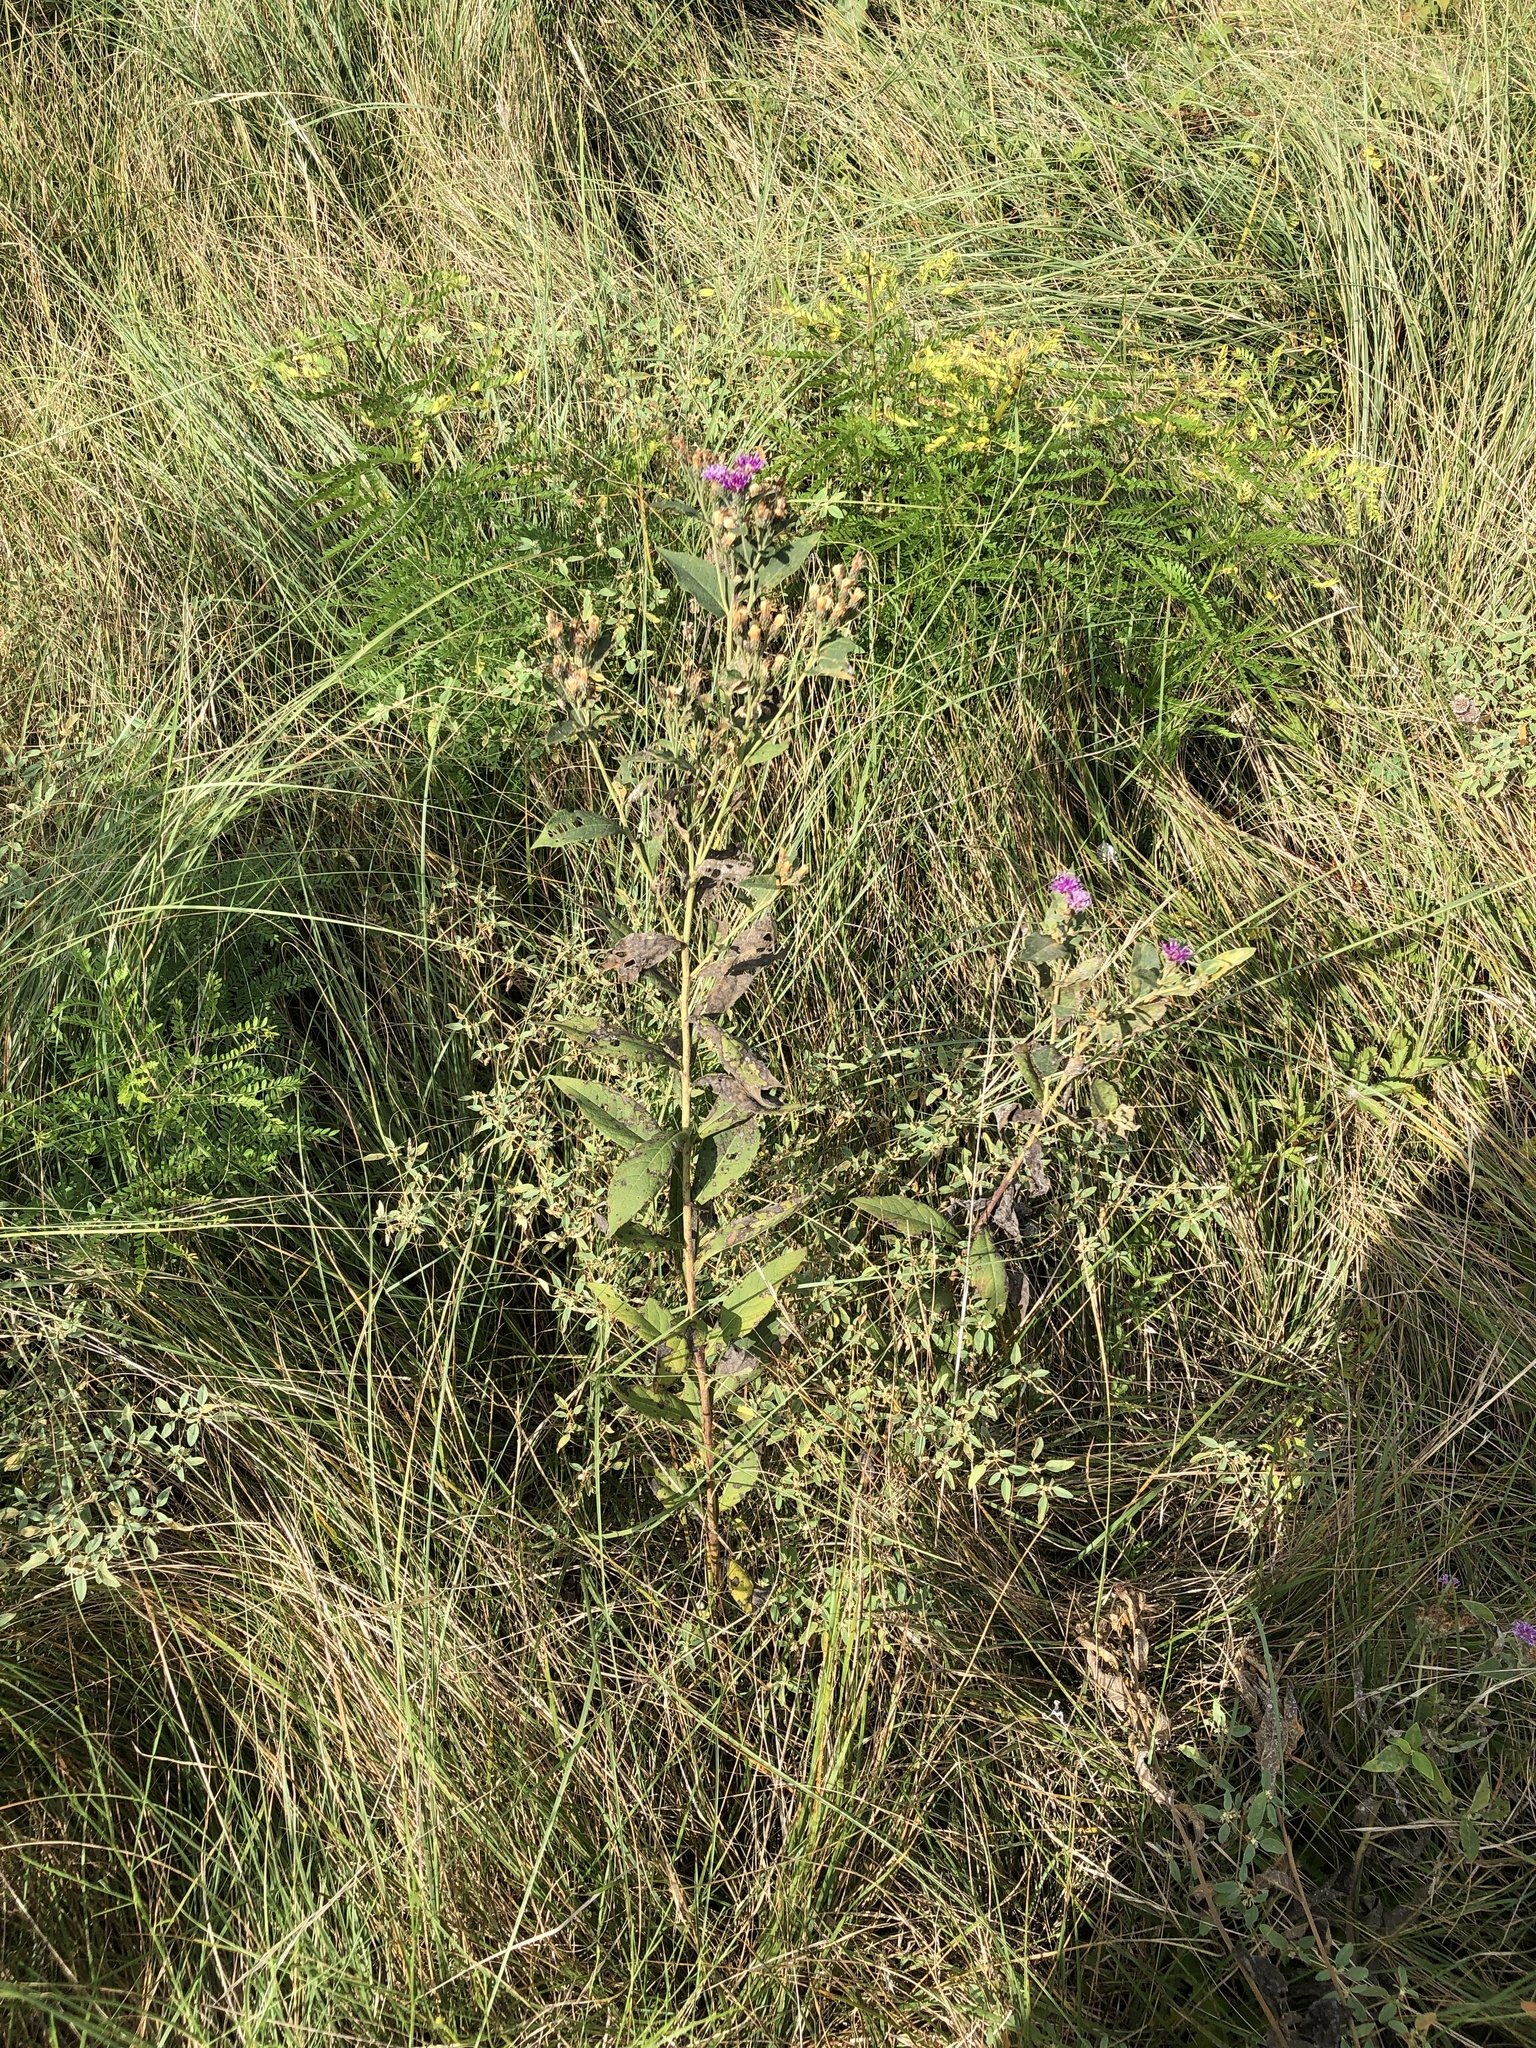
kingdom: Plantae
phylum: Tracheophyta
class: Magnoliopsida
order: Asterales
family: Asteraceae
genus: Vernonia
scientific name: Vernonia baldwinii
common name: Western ironweed
